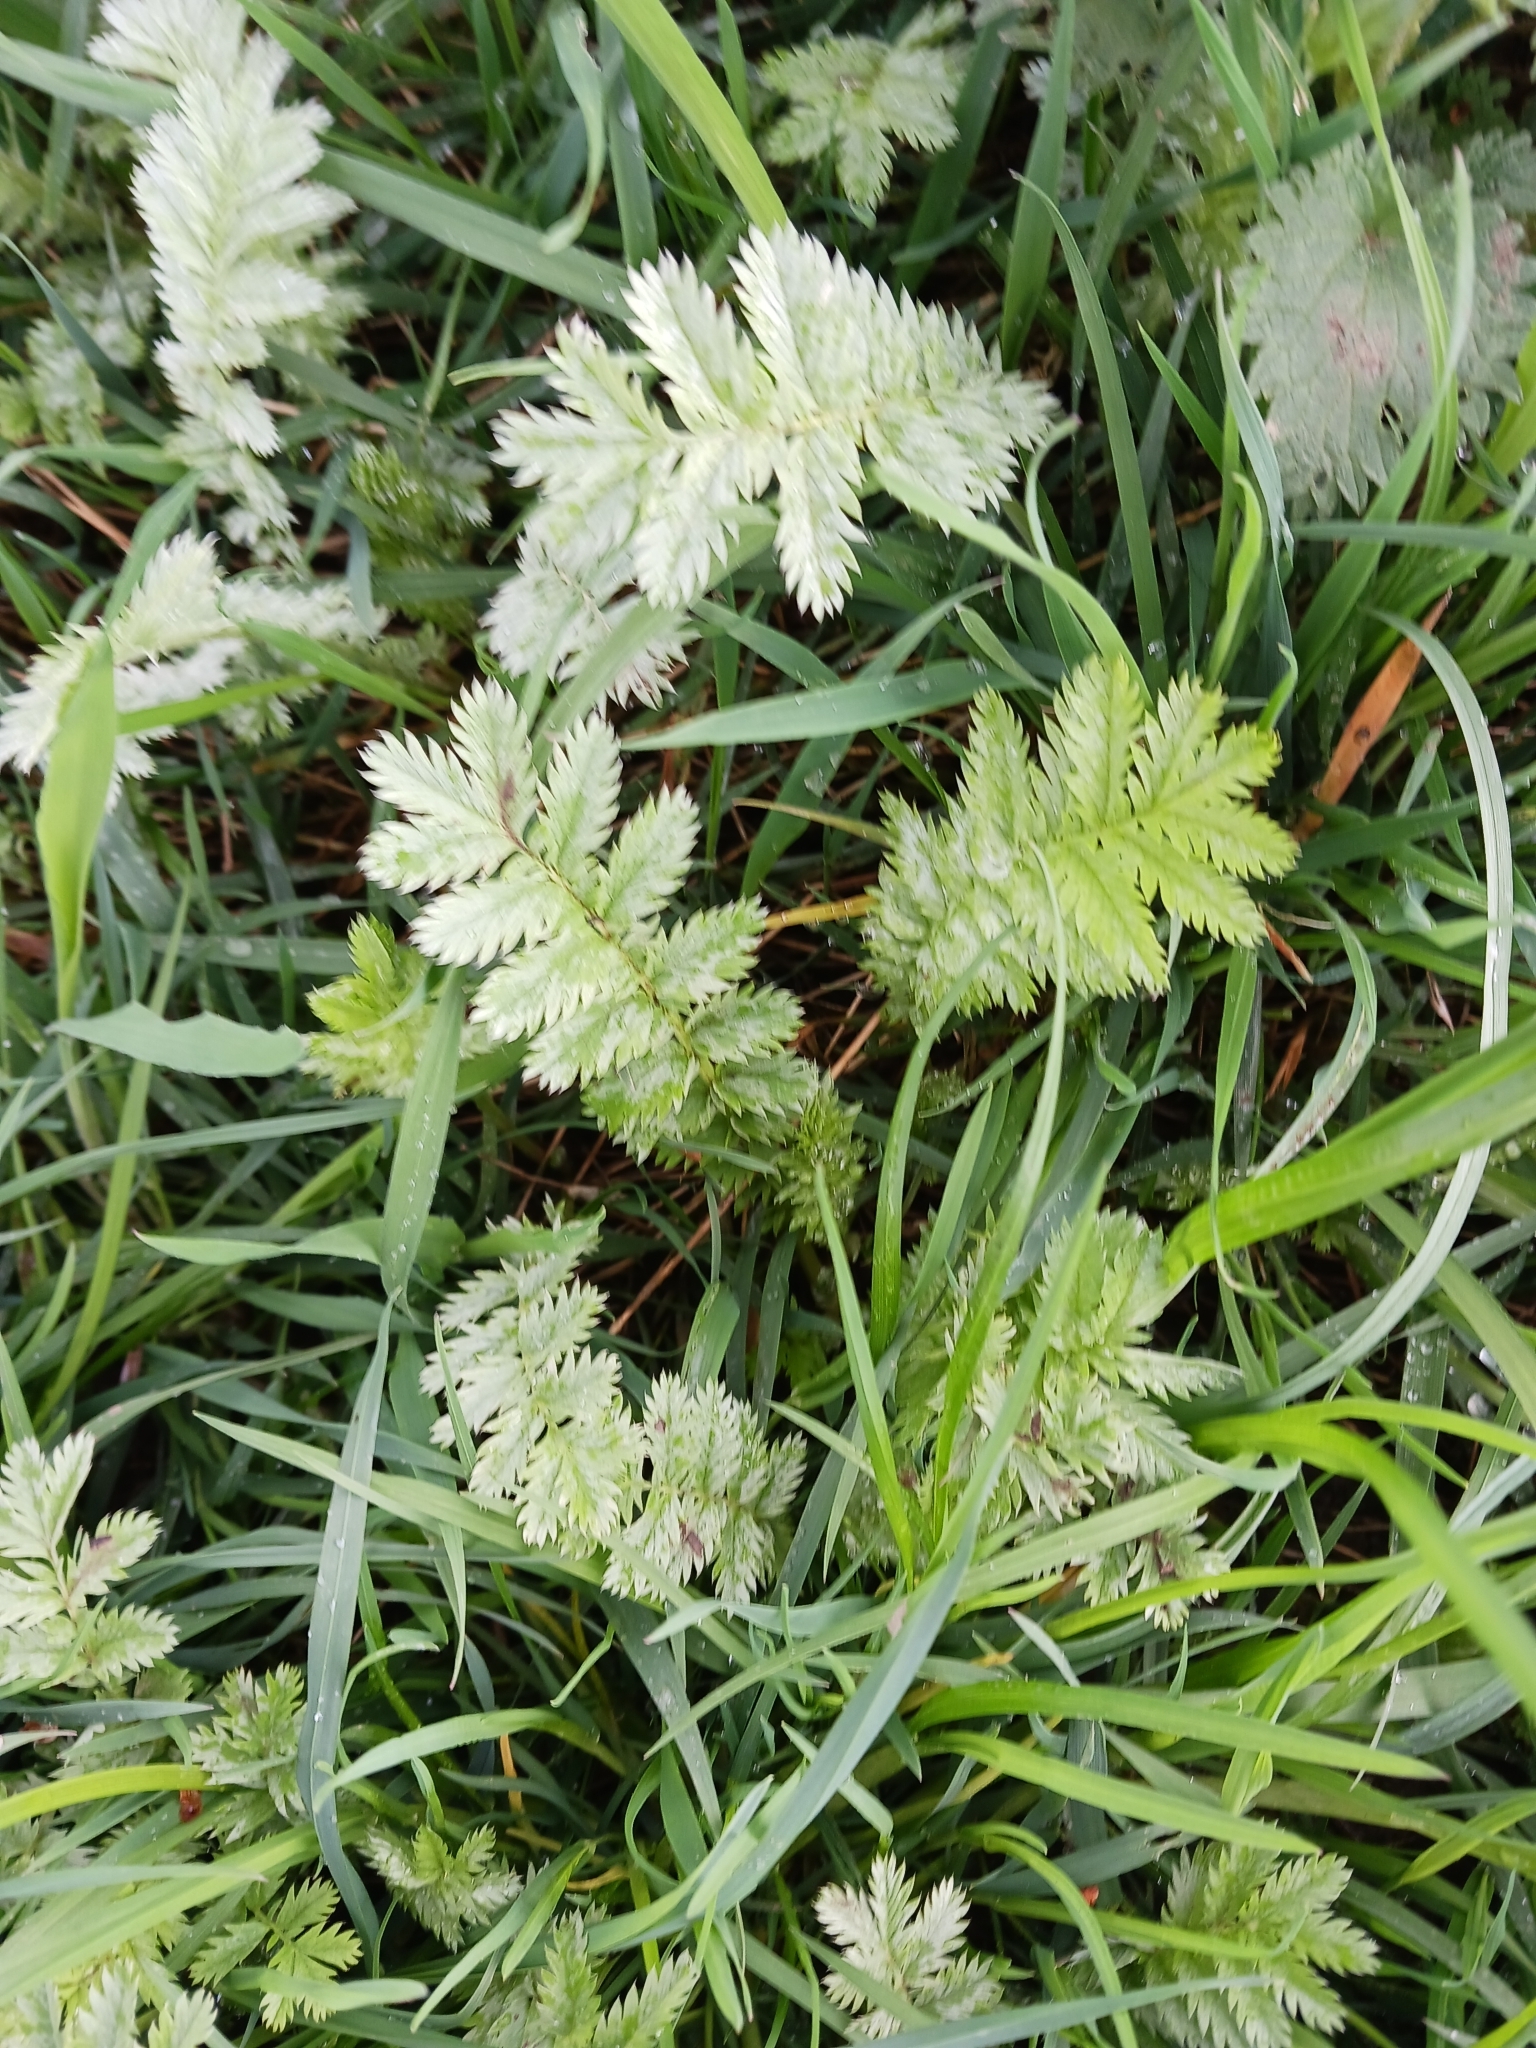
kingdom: Plantae
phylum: Tracheophyta
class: Magnoliopsida
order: Rosales
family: Rosaceae
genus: Argentina
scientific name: Argentina anserina
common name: Common silverweed
